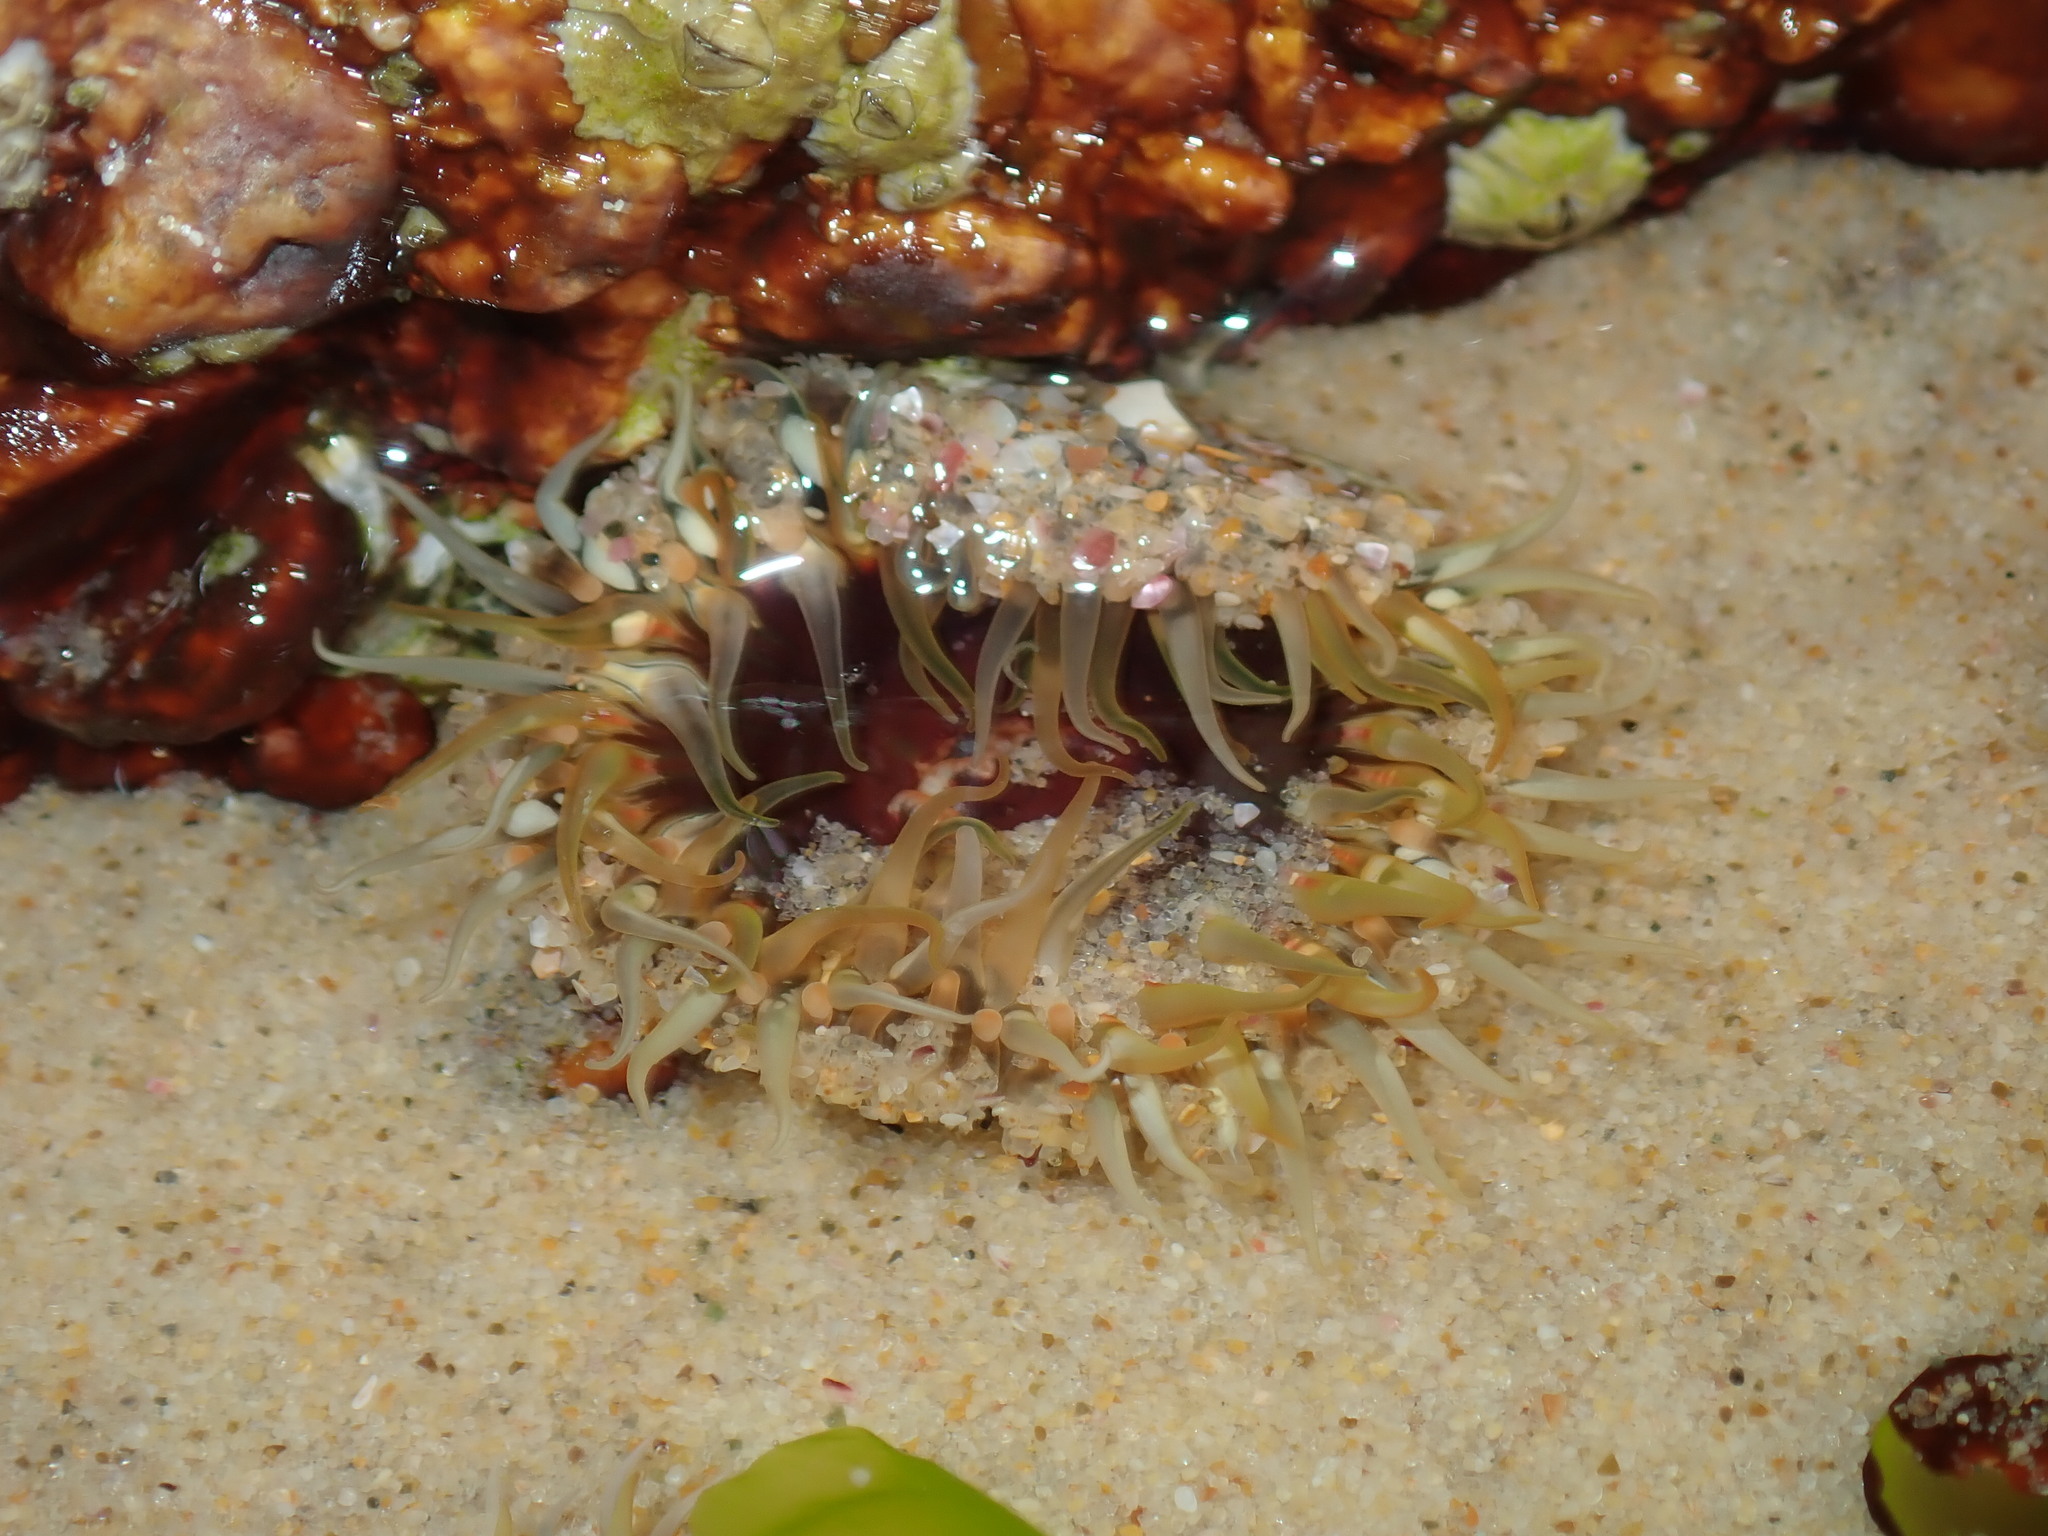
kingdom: Animalia
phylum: Cnidaria
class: Anthozoa
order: Actiniaria
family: Actiniidae
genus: Oulactis
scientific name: Oulactis muscosa
